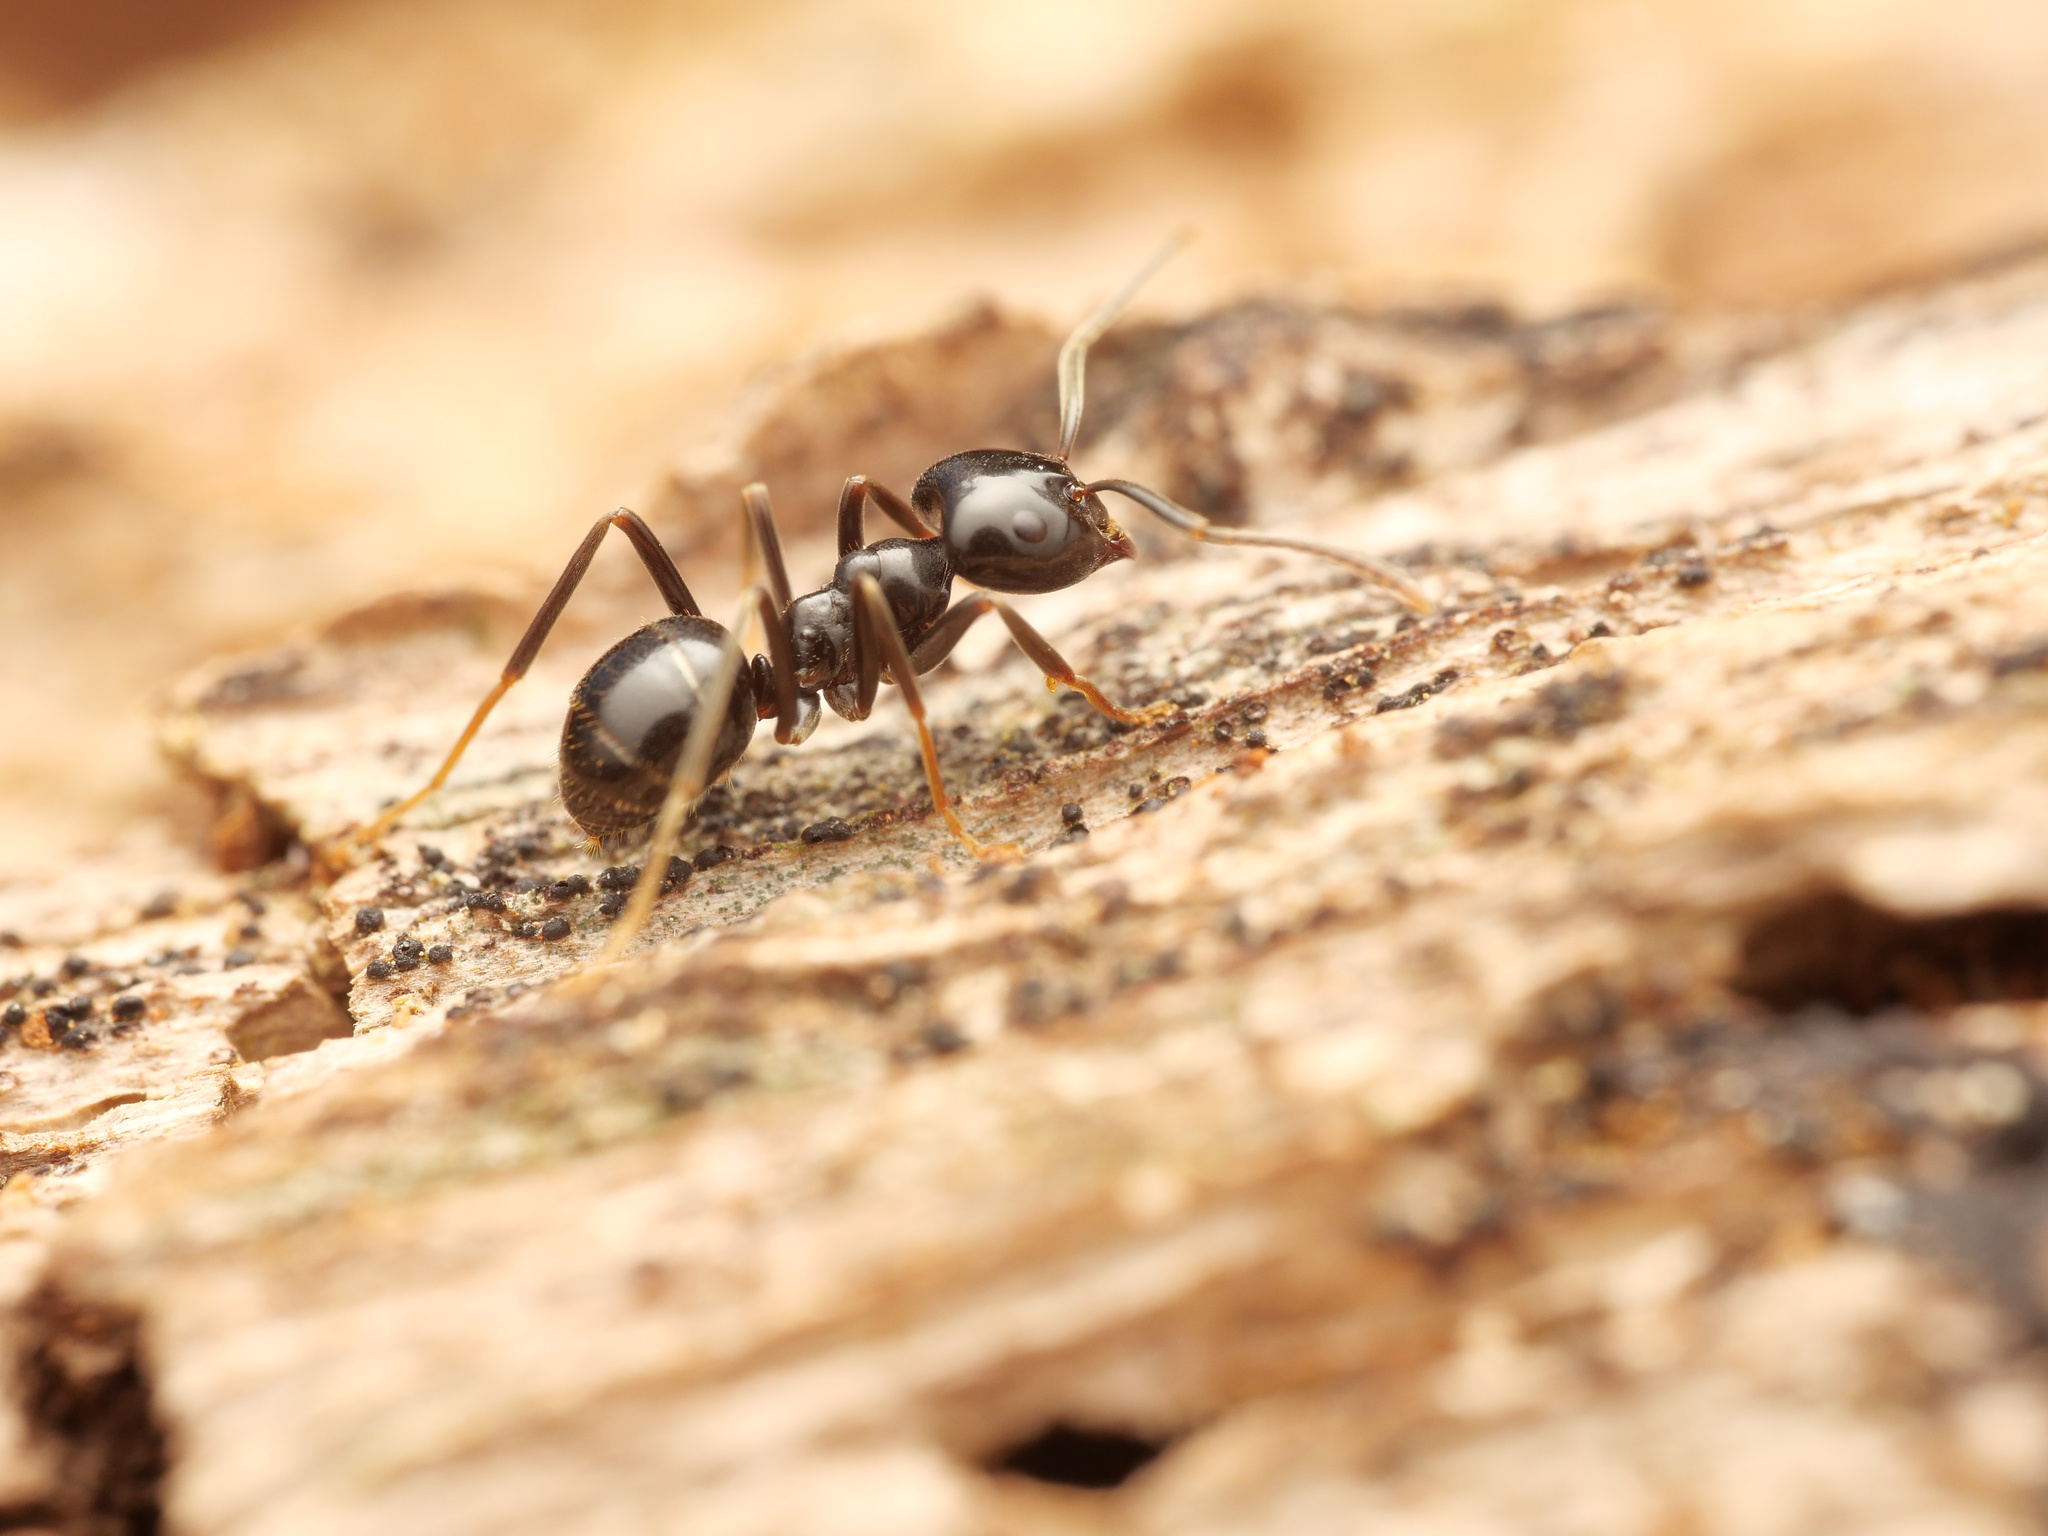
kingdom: Animalia
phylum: Arthropoda
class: Insecta
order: Hymenoptera
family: Formicidae
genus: Lasius
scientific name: Lasius fuliginosus
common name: Jet ant
